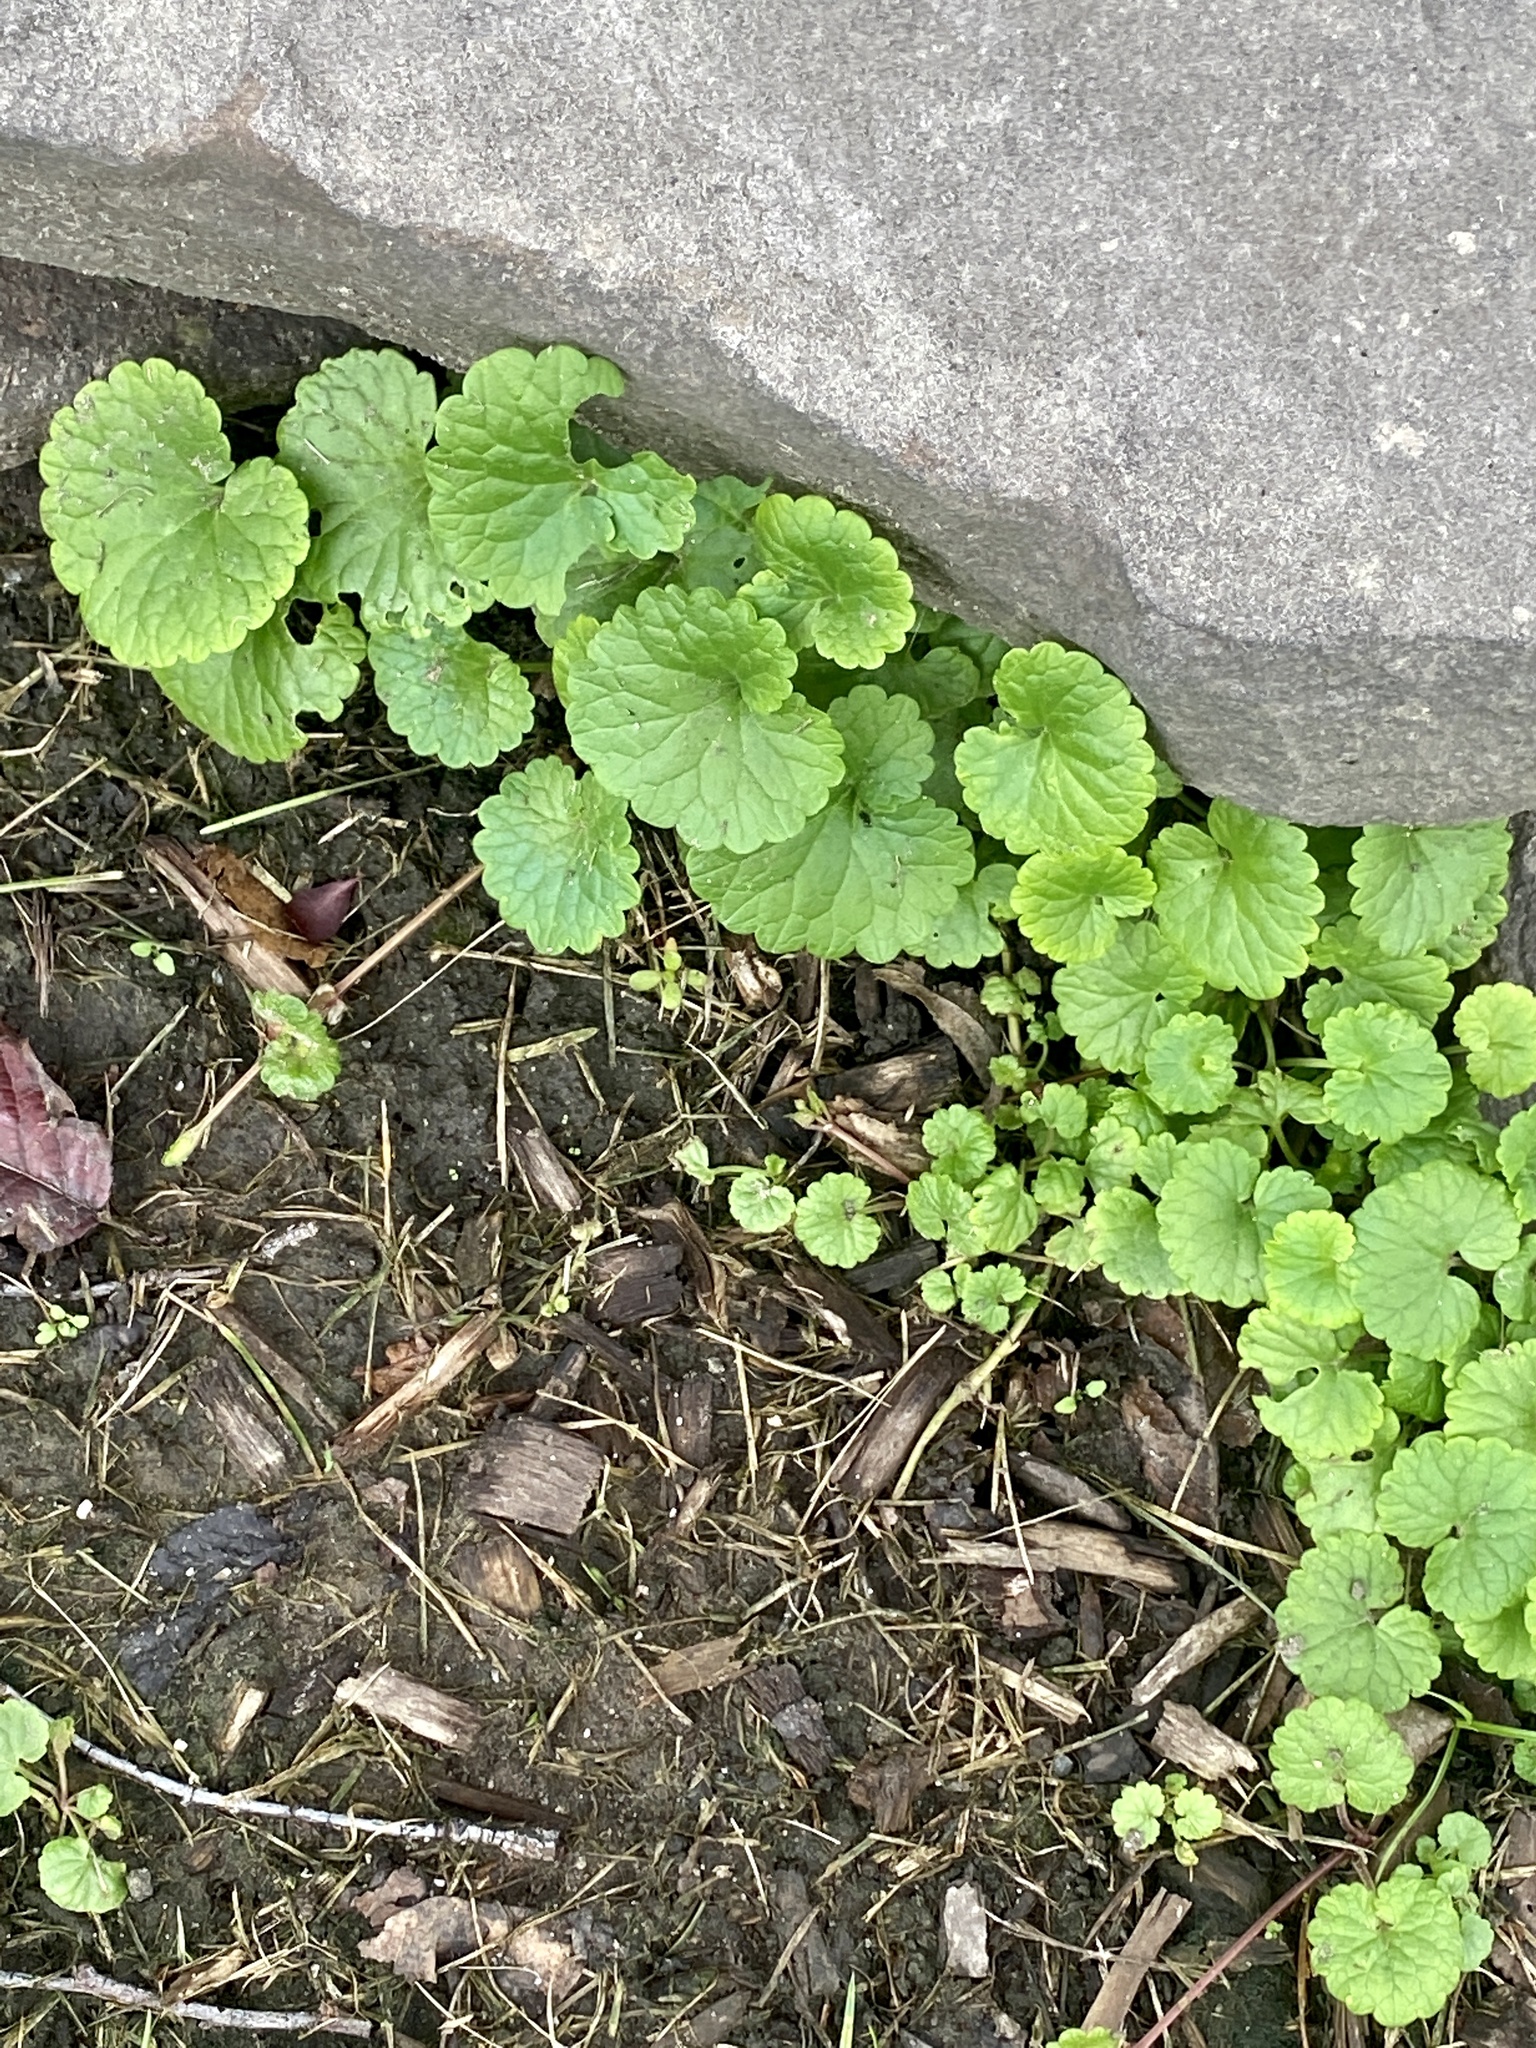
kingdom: Plantae
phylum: Tracheophyta
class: Magnoliopsida
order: Lamiales
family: Lamiaceae
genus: Glechoma
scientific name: Glechoma hederacea
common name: Ground ivy
